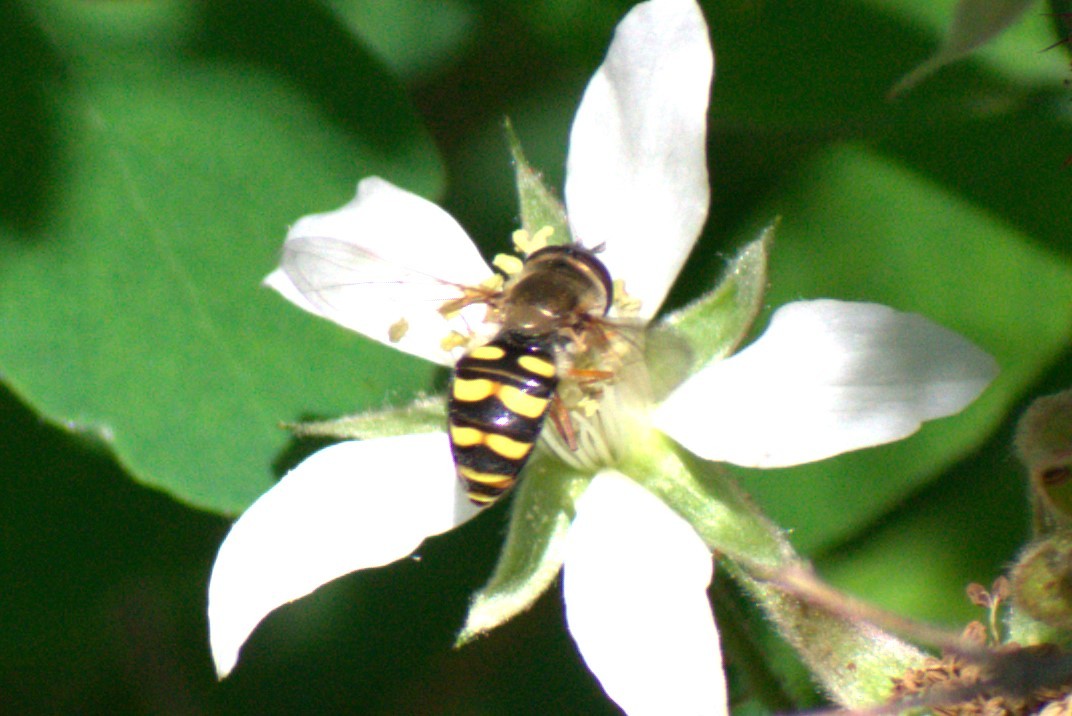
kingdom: Animalia
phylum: Arthropoda
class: Insecta
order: Diptera
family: Syrphidae
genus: Eupeodes
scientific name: Eupeodes fumipennis
